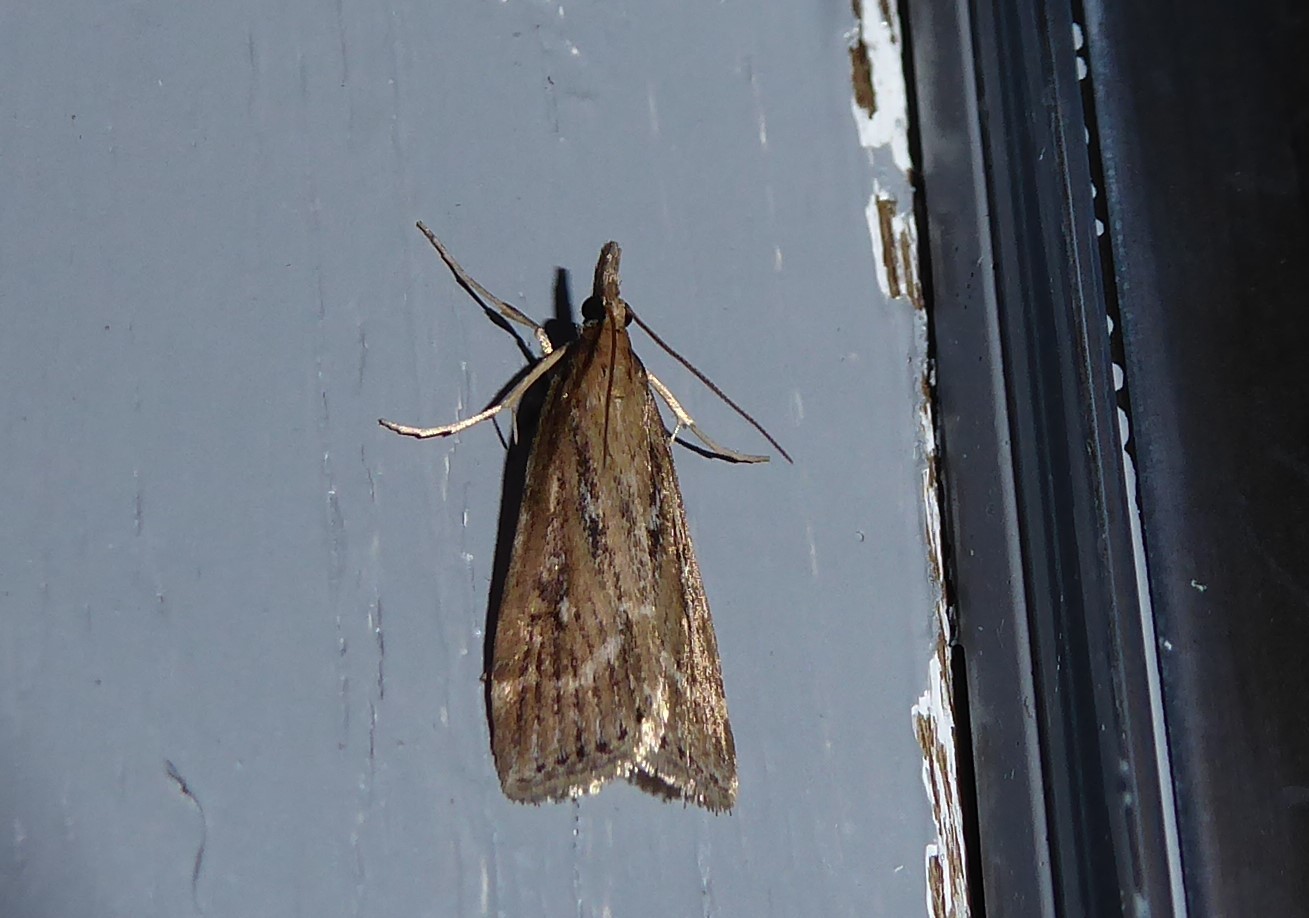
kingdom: Animalia
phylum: Arthropoda
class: Insecta
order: Lepidoptera
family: Crambidae
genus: Eudonia
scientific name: Eudonia octophora
